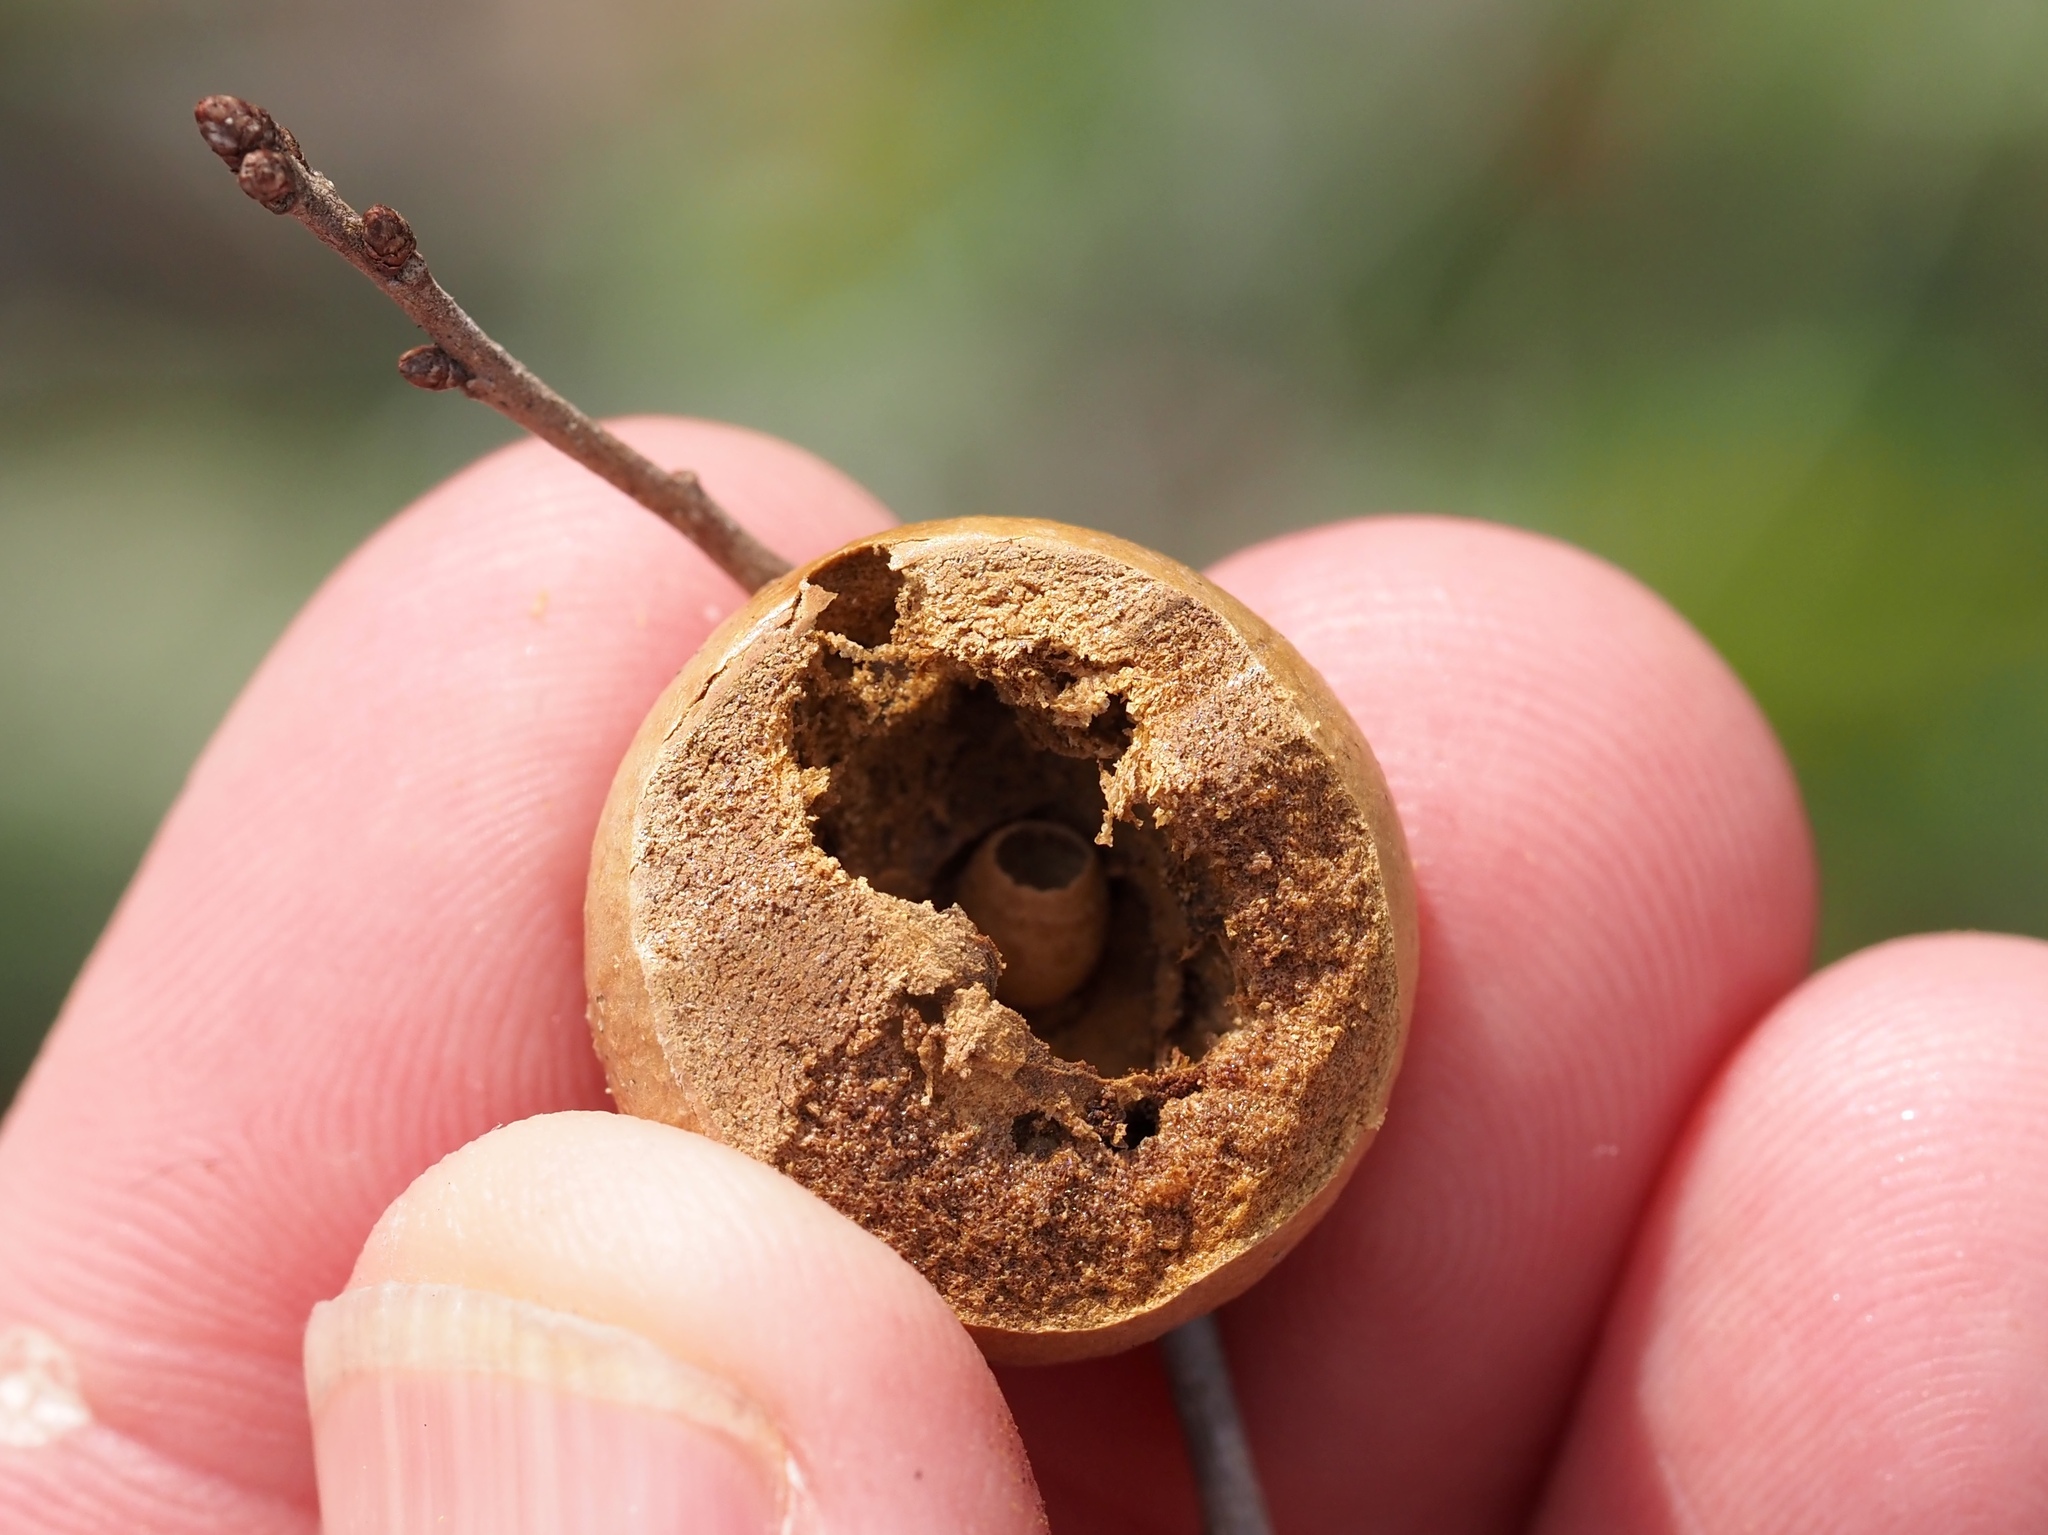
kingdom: Animalia
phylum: Arthropoda
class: Insecta
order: Hymenoptera
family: Cynipidae
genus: Disholcaspis
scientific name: Disholcaspis
